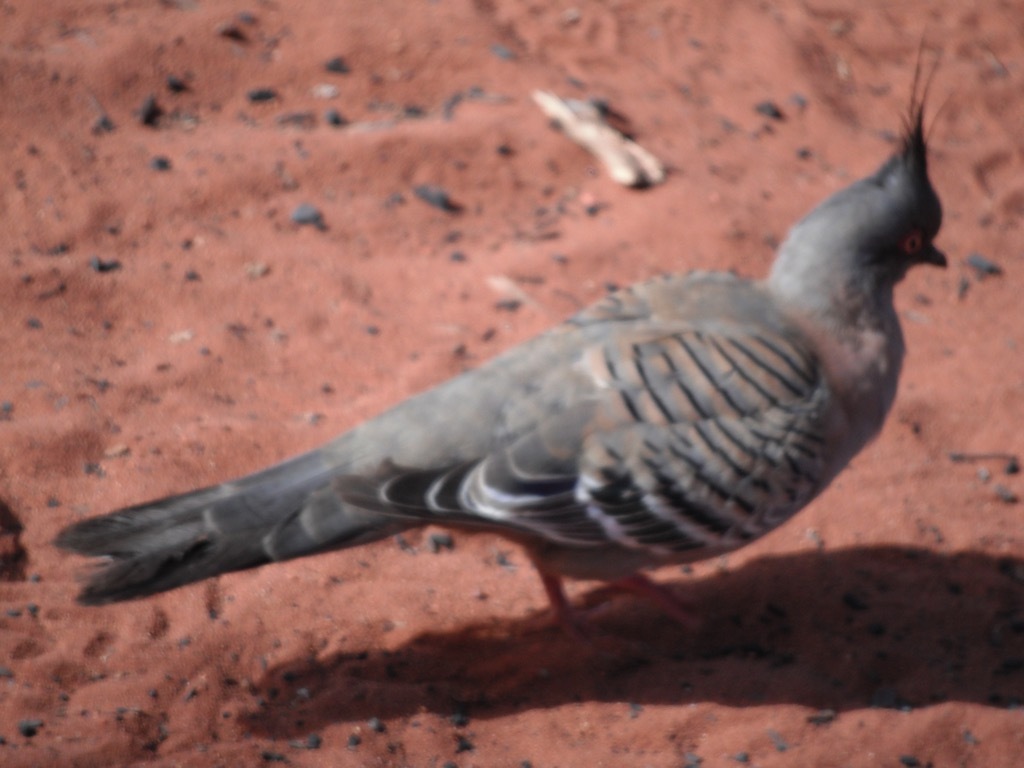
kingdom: Animalia
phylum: Chordata
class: Aves
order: Columbiformes
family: Columbidae
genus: Ocyphaps
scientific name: Ocyphaps lophotes
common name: Crested pigeon
